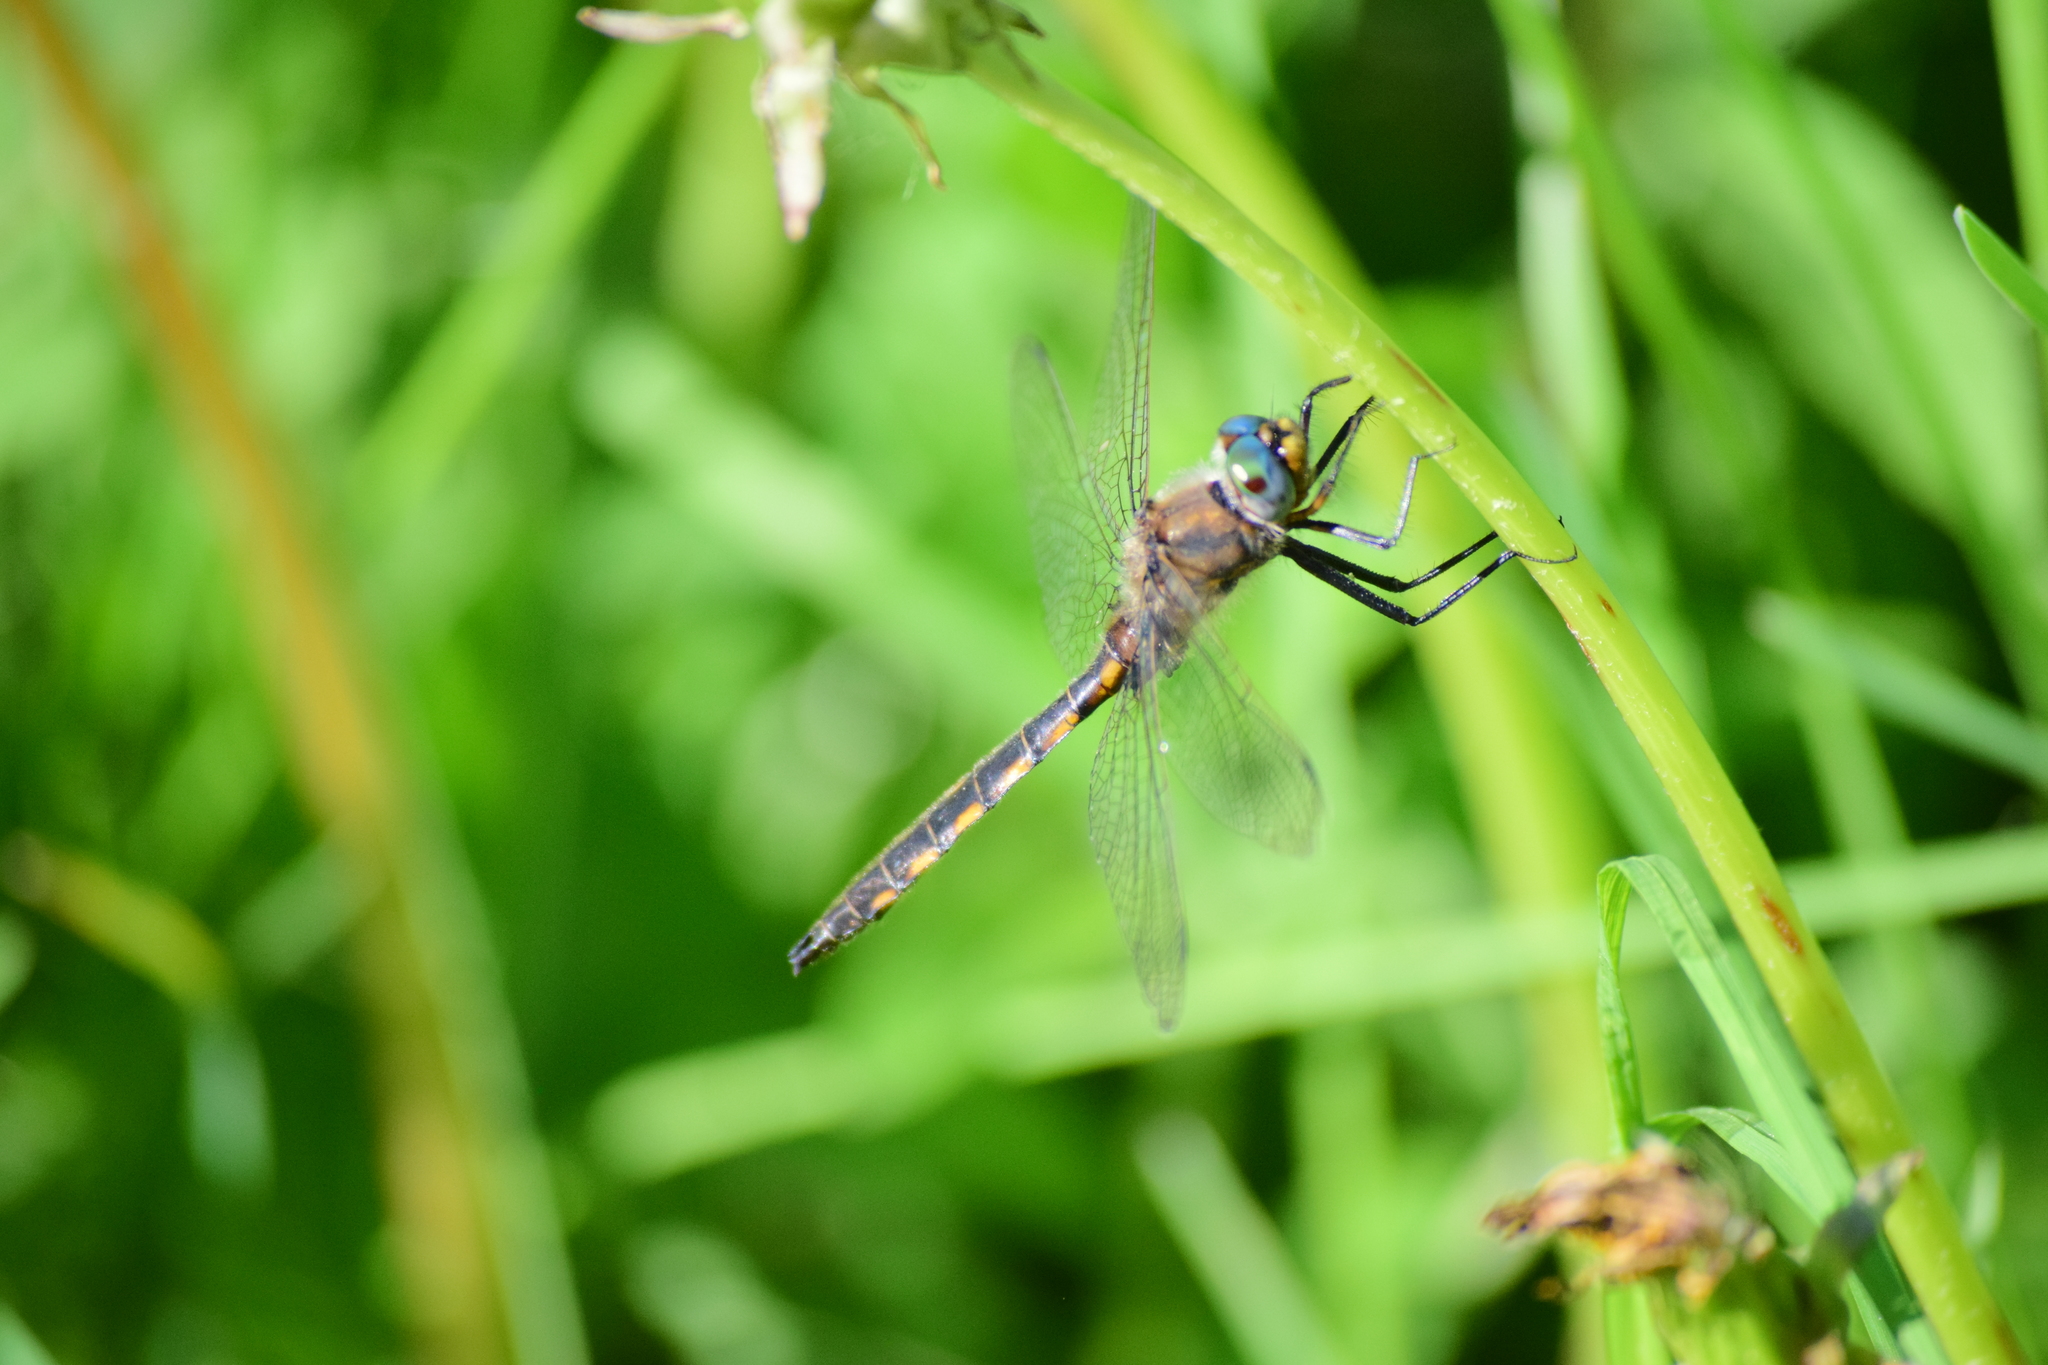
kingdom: Animalia
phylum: Arthropoda
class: Insecta
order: Odonata
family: Corduliidae
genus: Epitheca
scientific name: Epitheca canis
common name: Beaverpond baskettail
